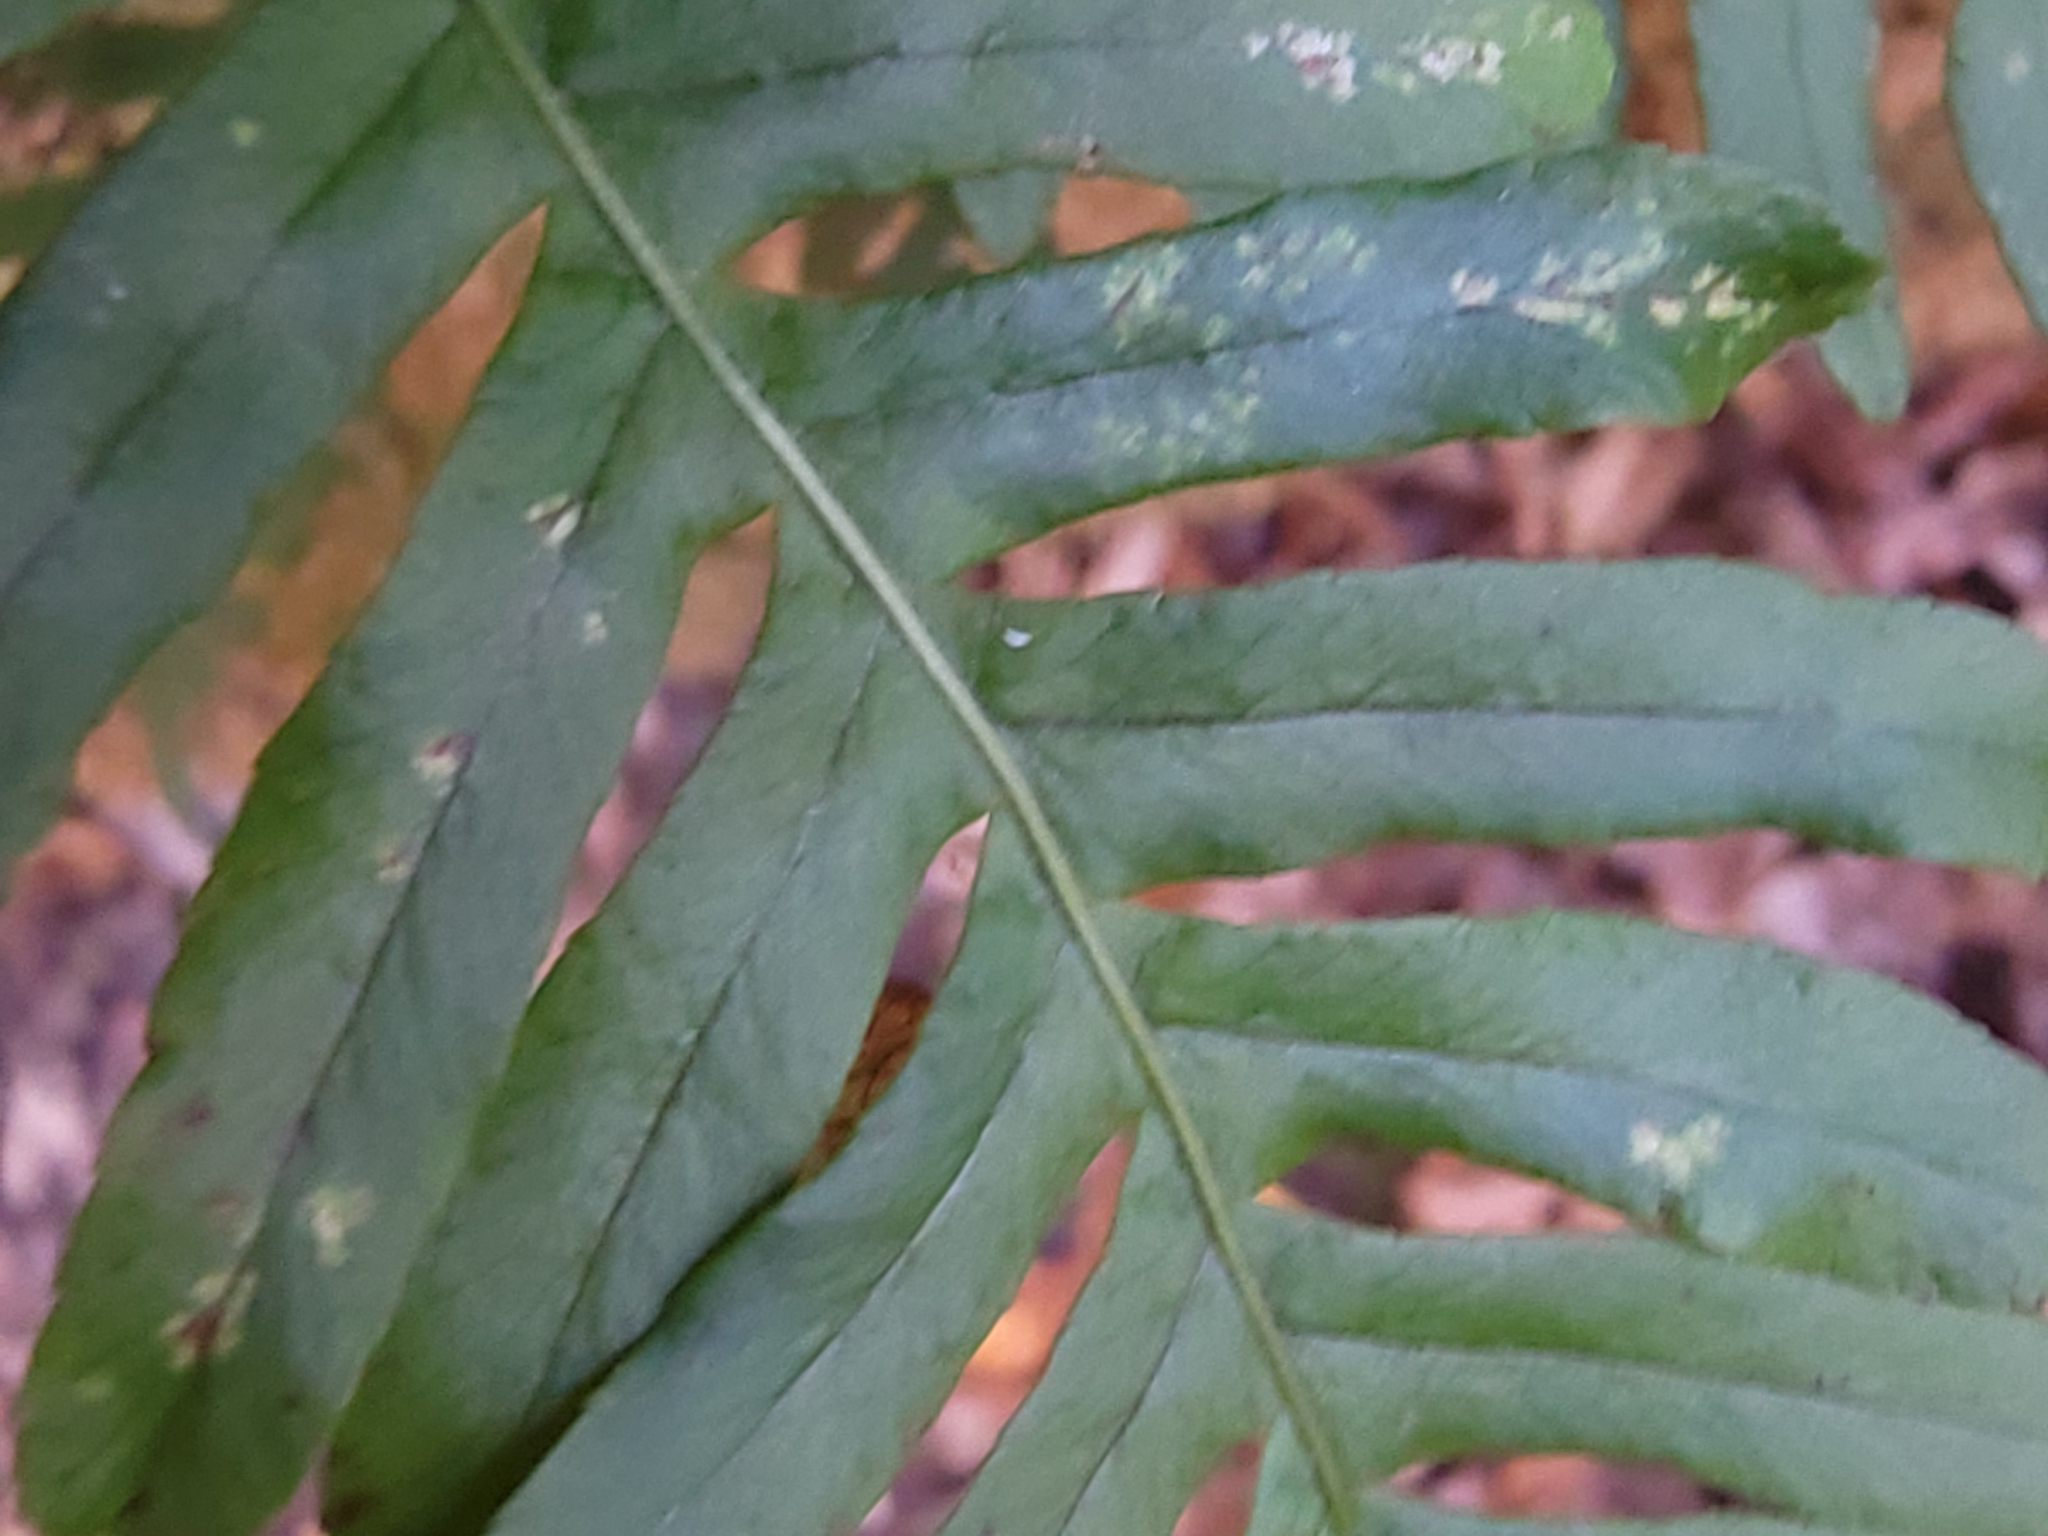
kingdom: Plantae
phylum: Tracheophyta
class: Polypodiopsida
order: Polypodiales
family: Polypodiaceae
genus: Polypodium
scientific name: Polypodium virginianum
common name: American wall fern
